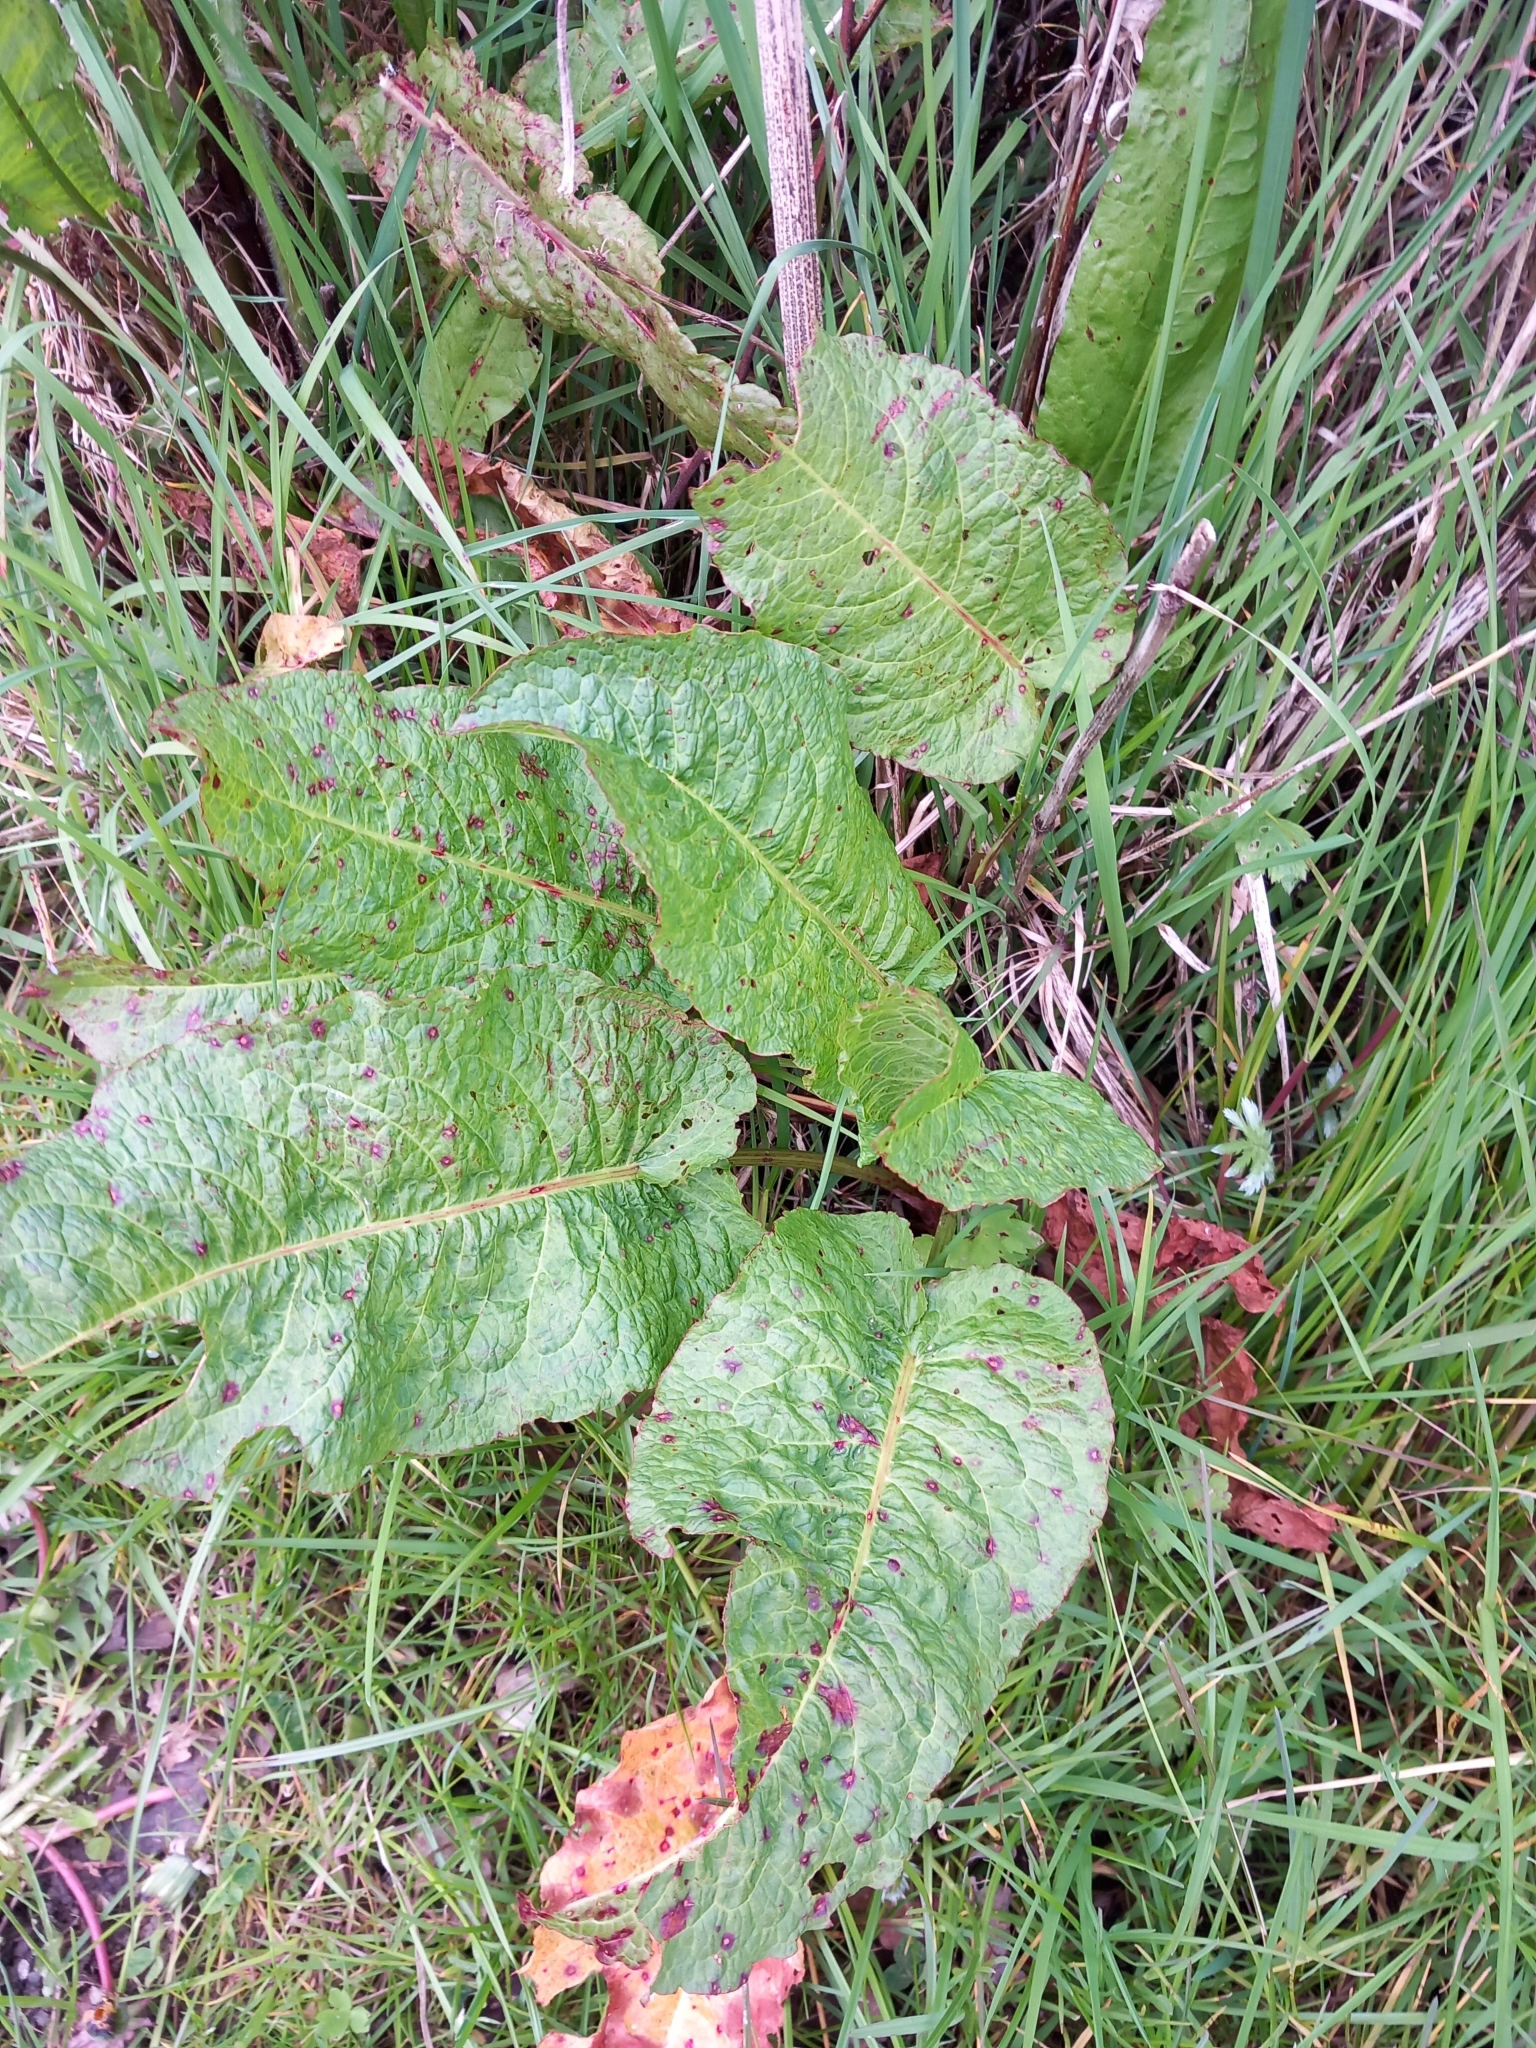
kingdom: Plantae
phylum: Tracheophyta
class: Magnoliopsida
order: Caryophyllales
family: Polygonaceae
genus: Rumex
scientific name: Rumex obtusifolius
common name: Bitter dock
